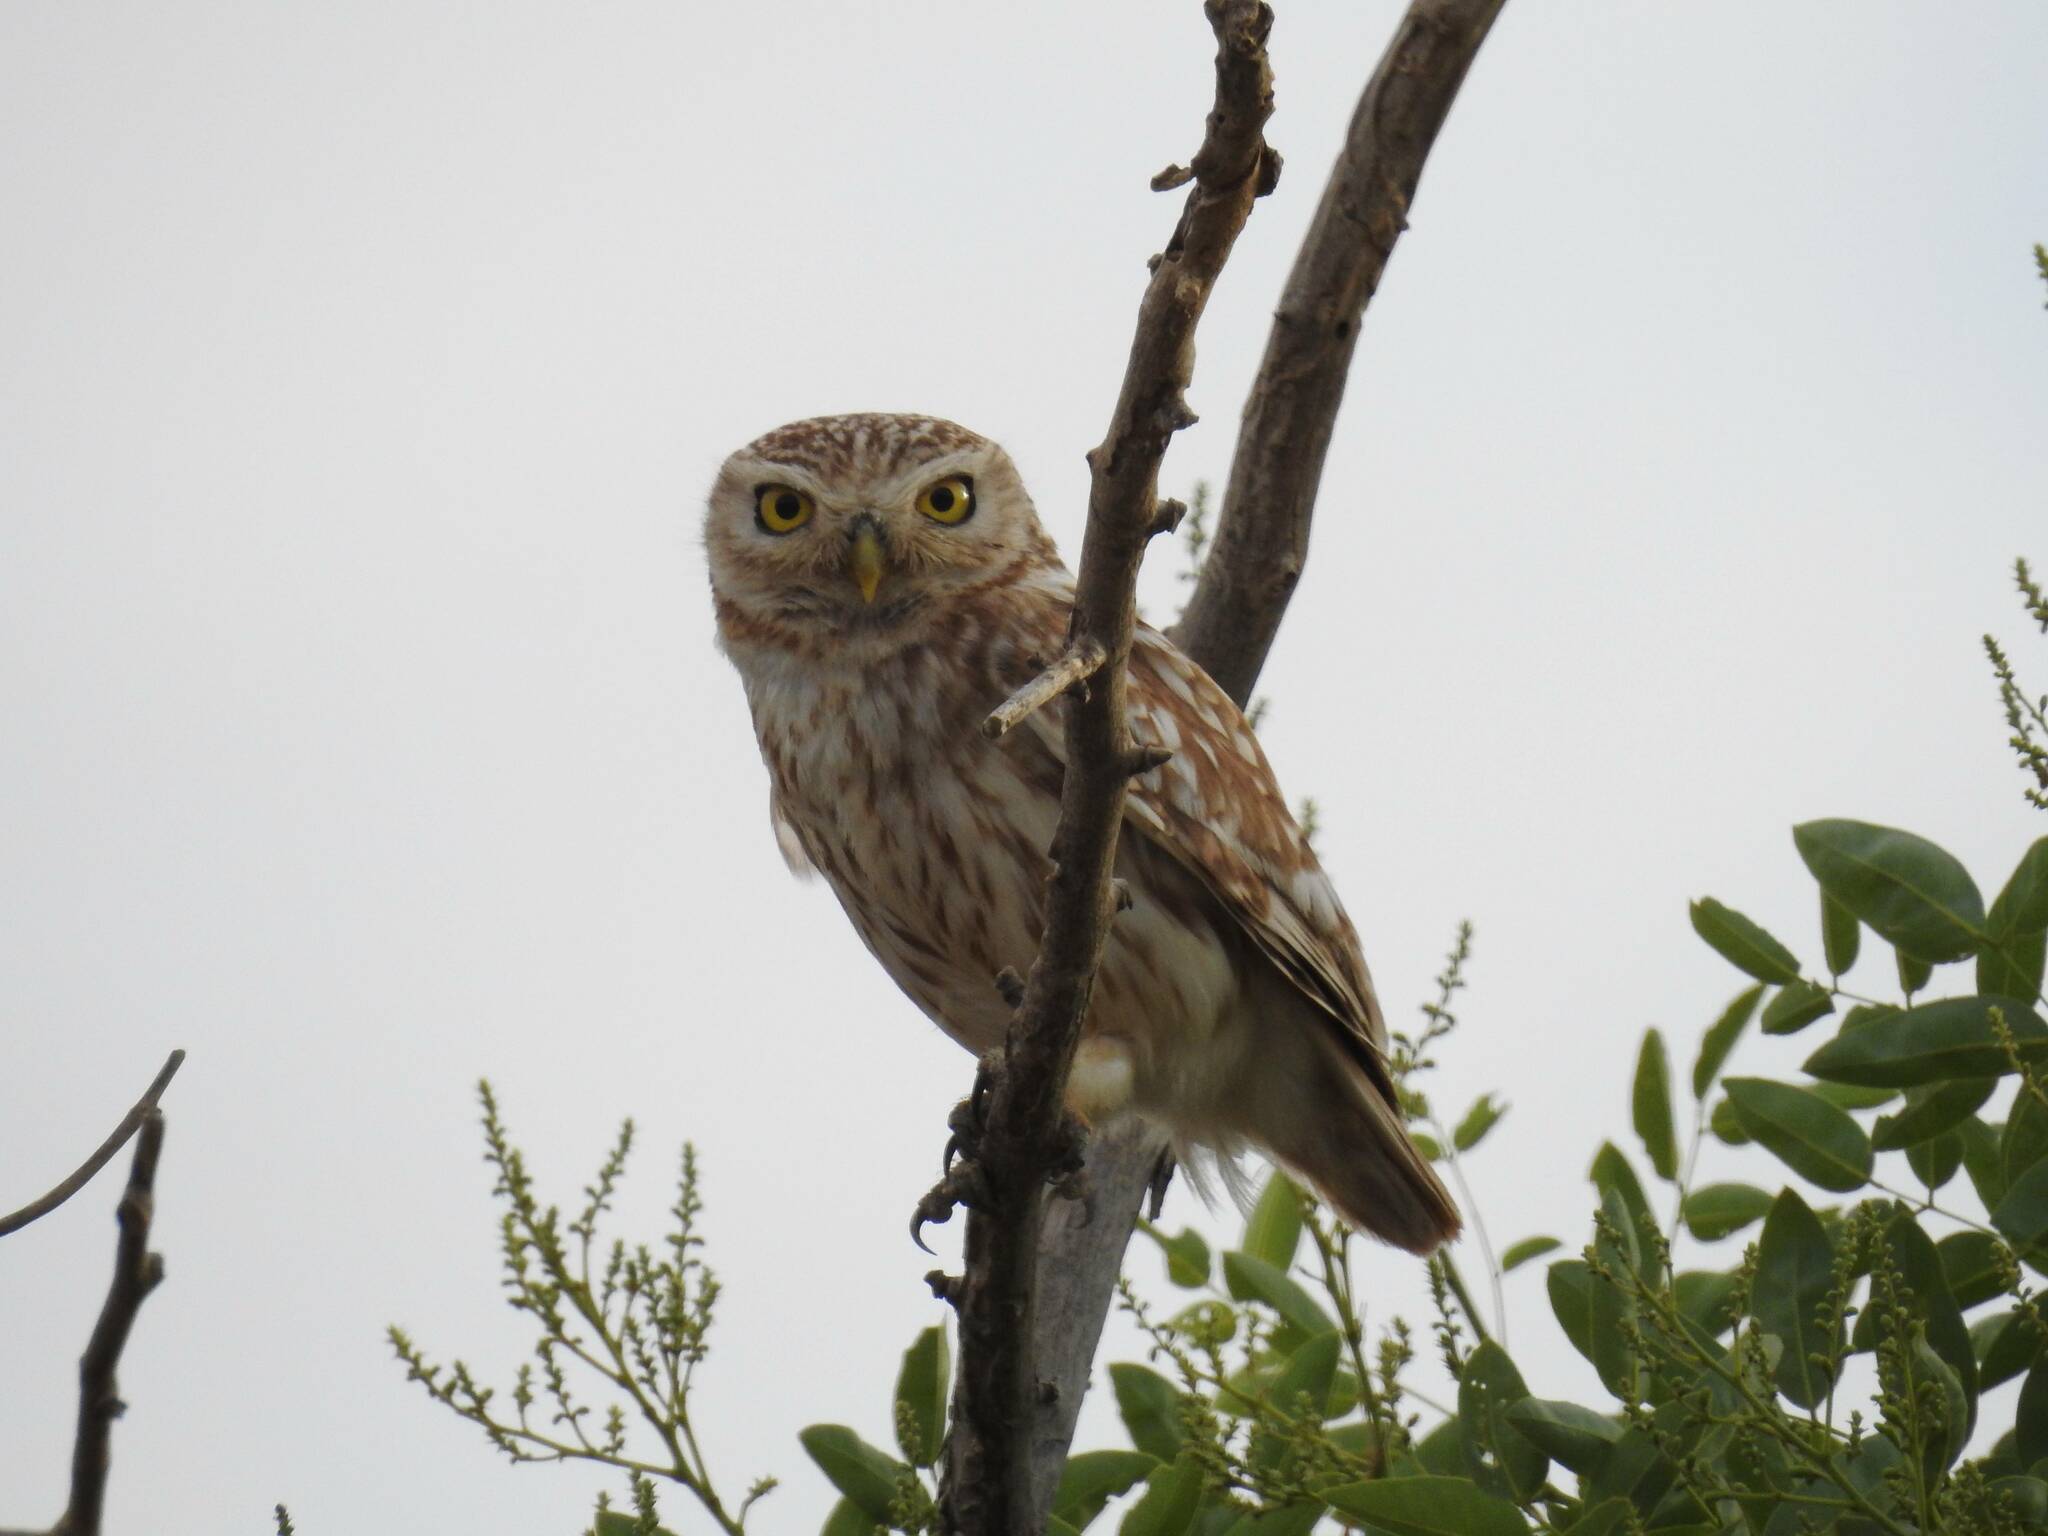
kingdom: Animalia
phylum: Chordata
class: Aves
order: Strigiformes
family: Strigidae
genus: Athene
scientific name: Athene noctua
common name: Little owl
